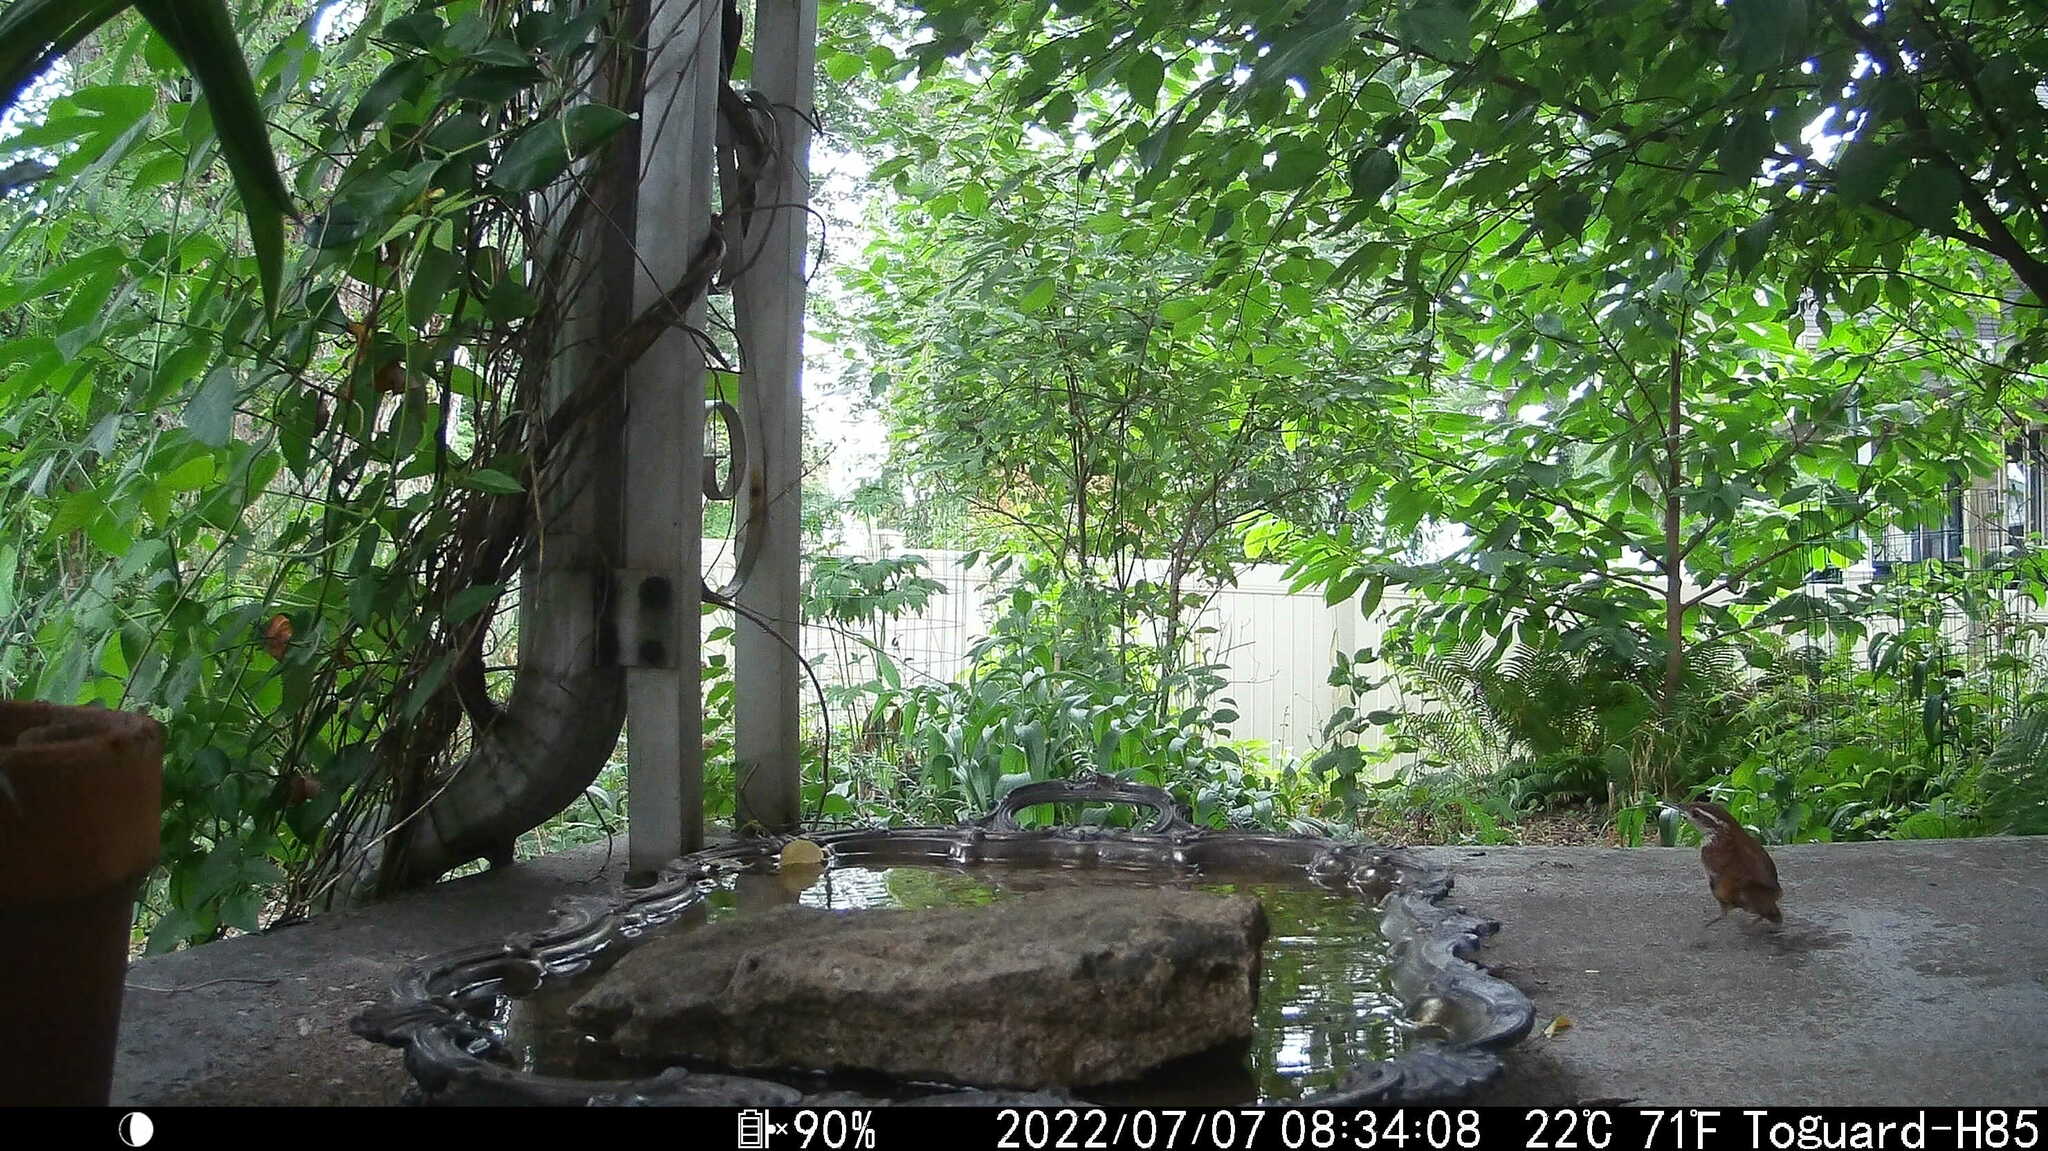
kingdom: Animalia
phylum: Chordata
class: Aves
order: Passeriformes
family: Troglodytidae
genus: Thryothorus
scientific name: Thryothorus ludovicianus
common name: Carolina wren
